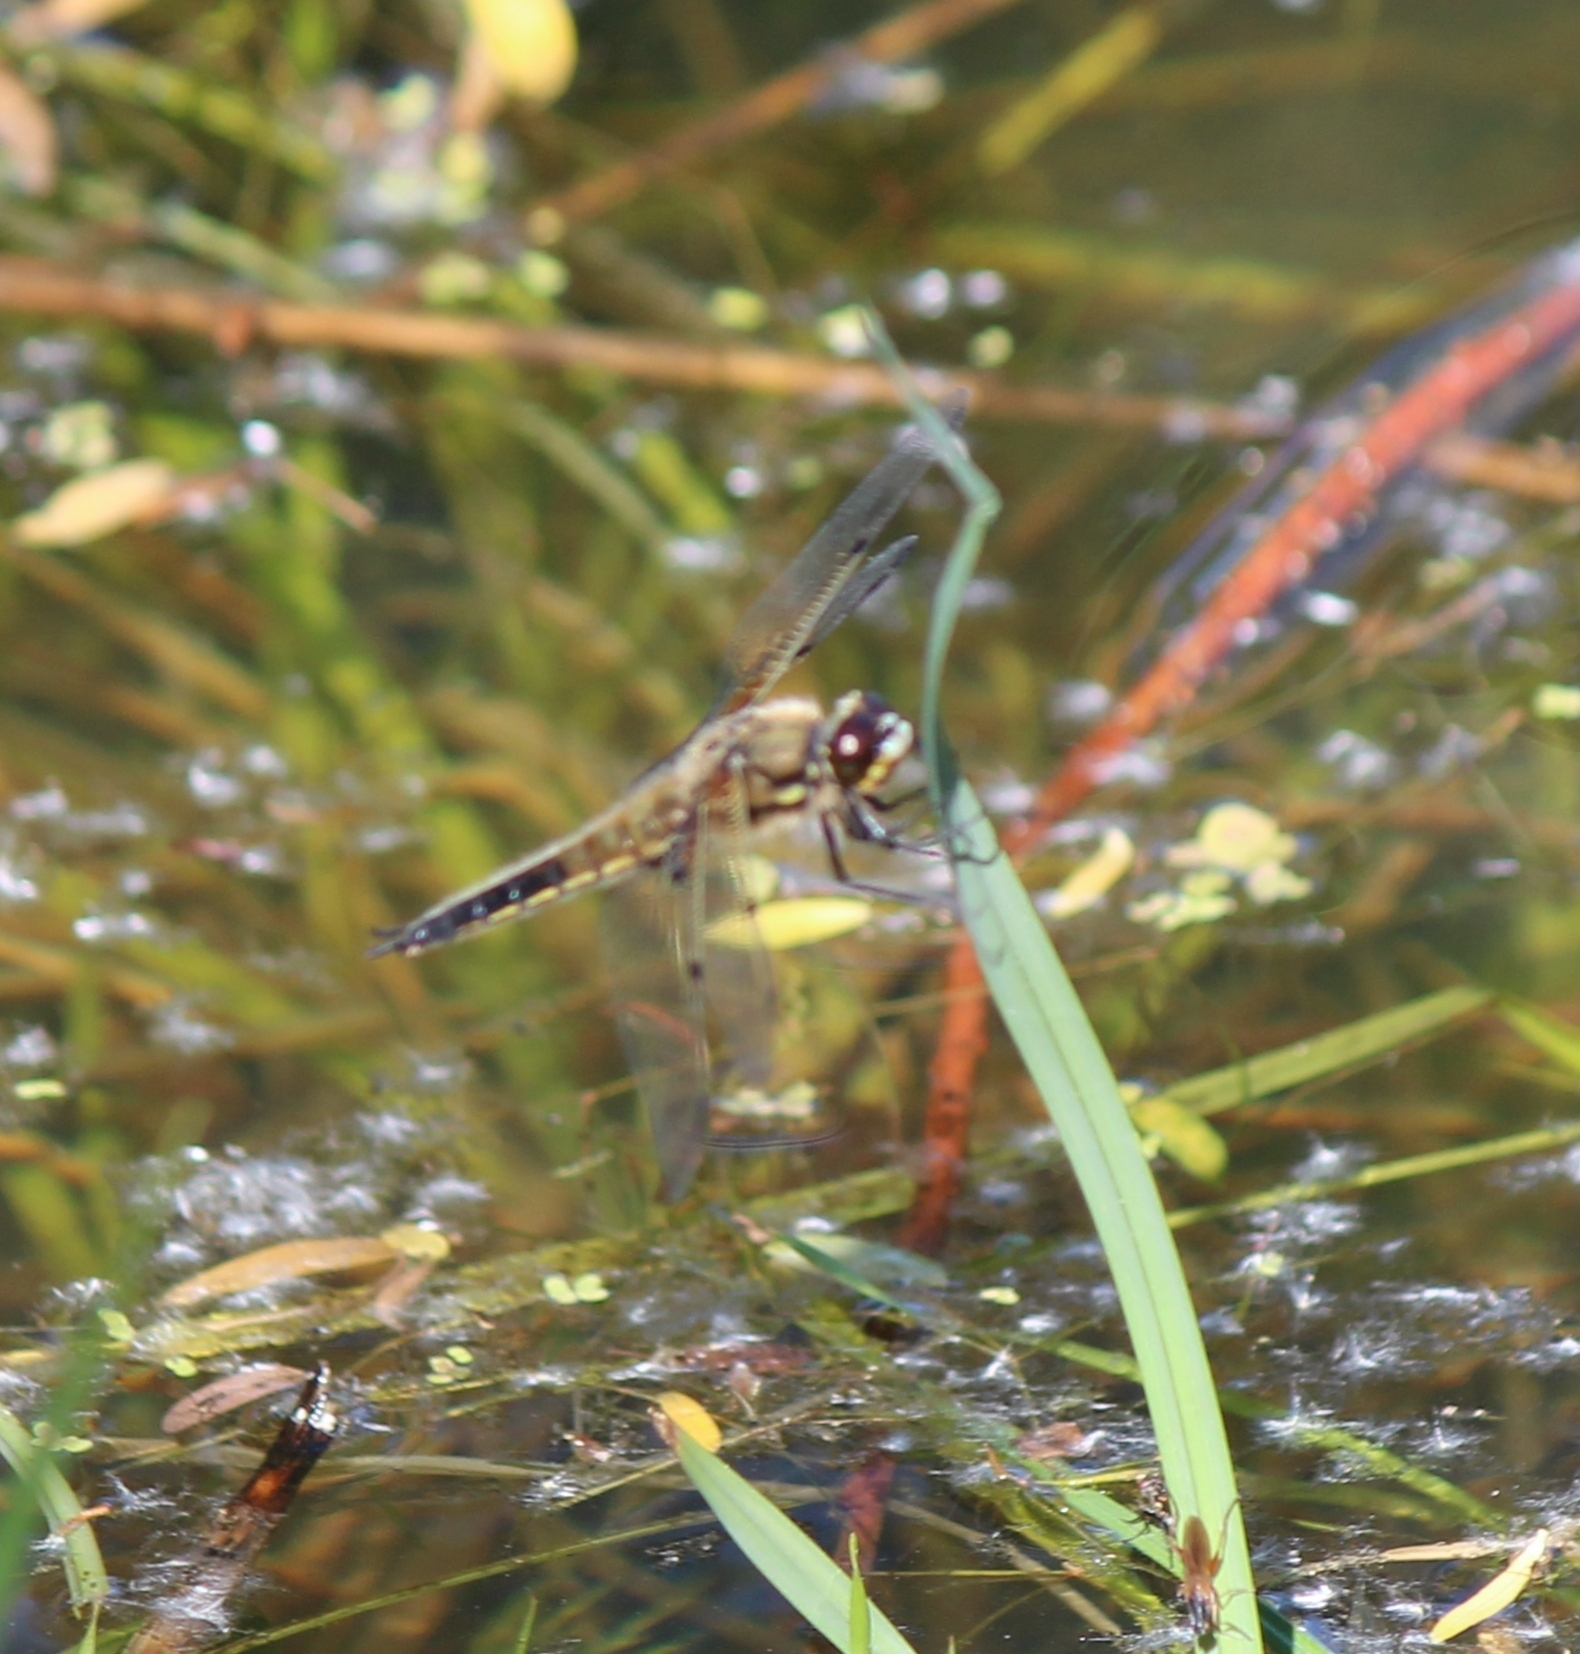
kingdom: Animalia
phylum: Arthropoda
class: Insecta
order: Odonata
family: Libellulidae
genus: Libellula
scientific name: Libellula quadrimaculata
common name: Four-spotted chaser
